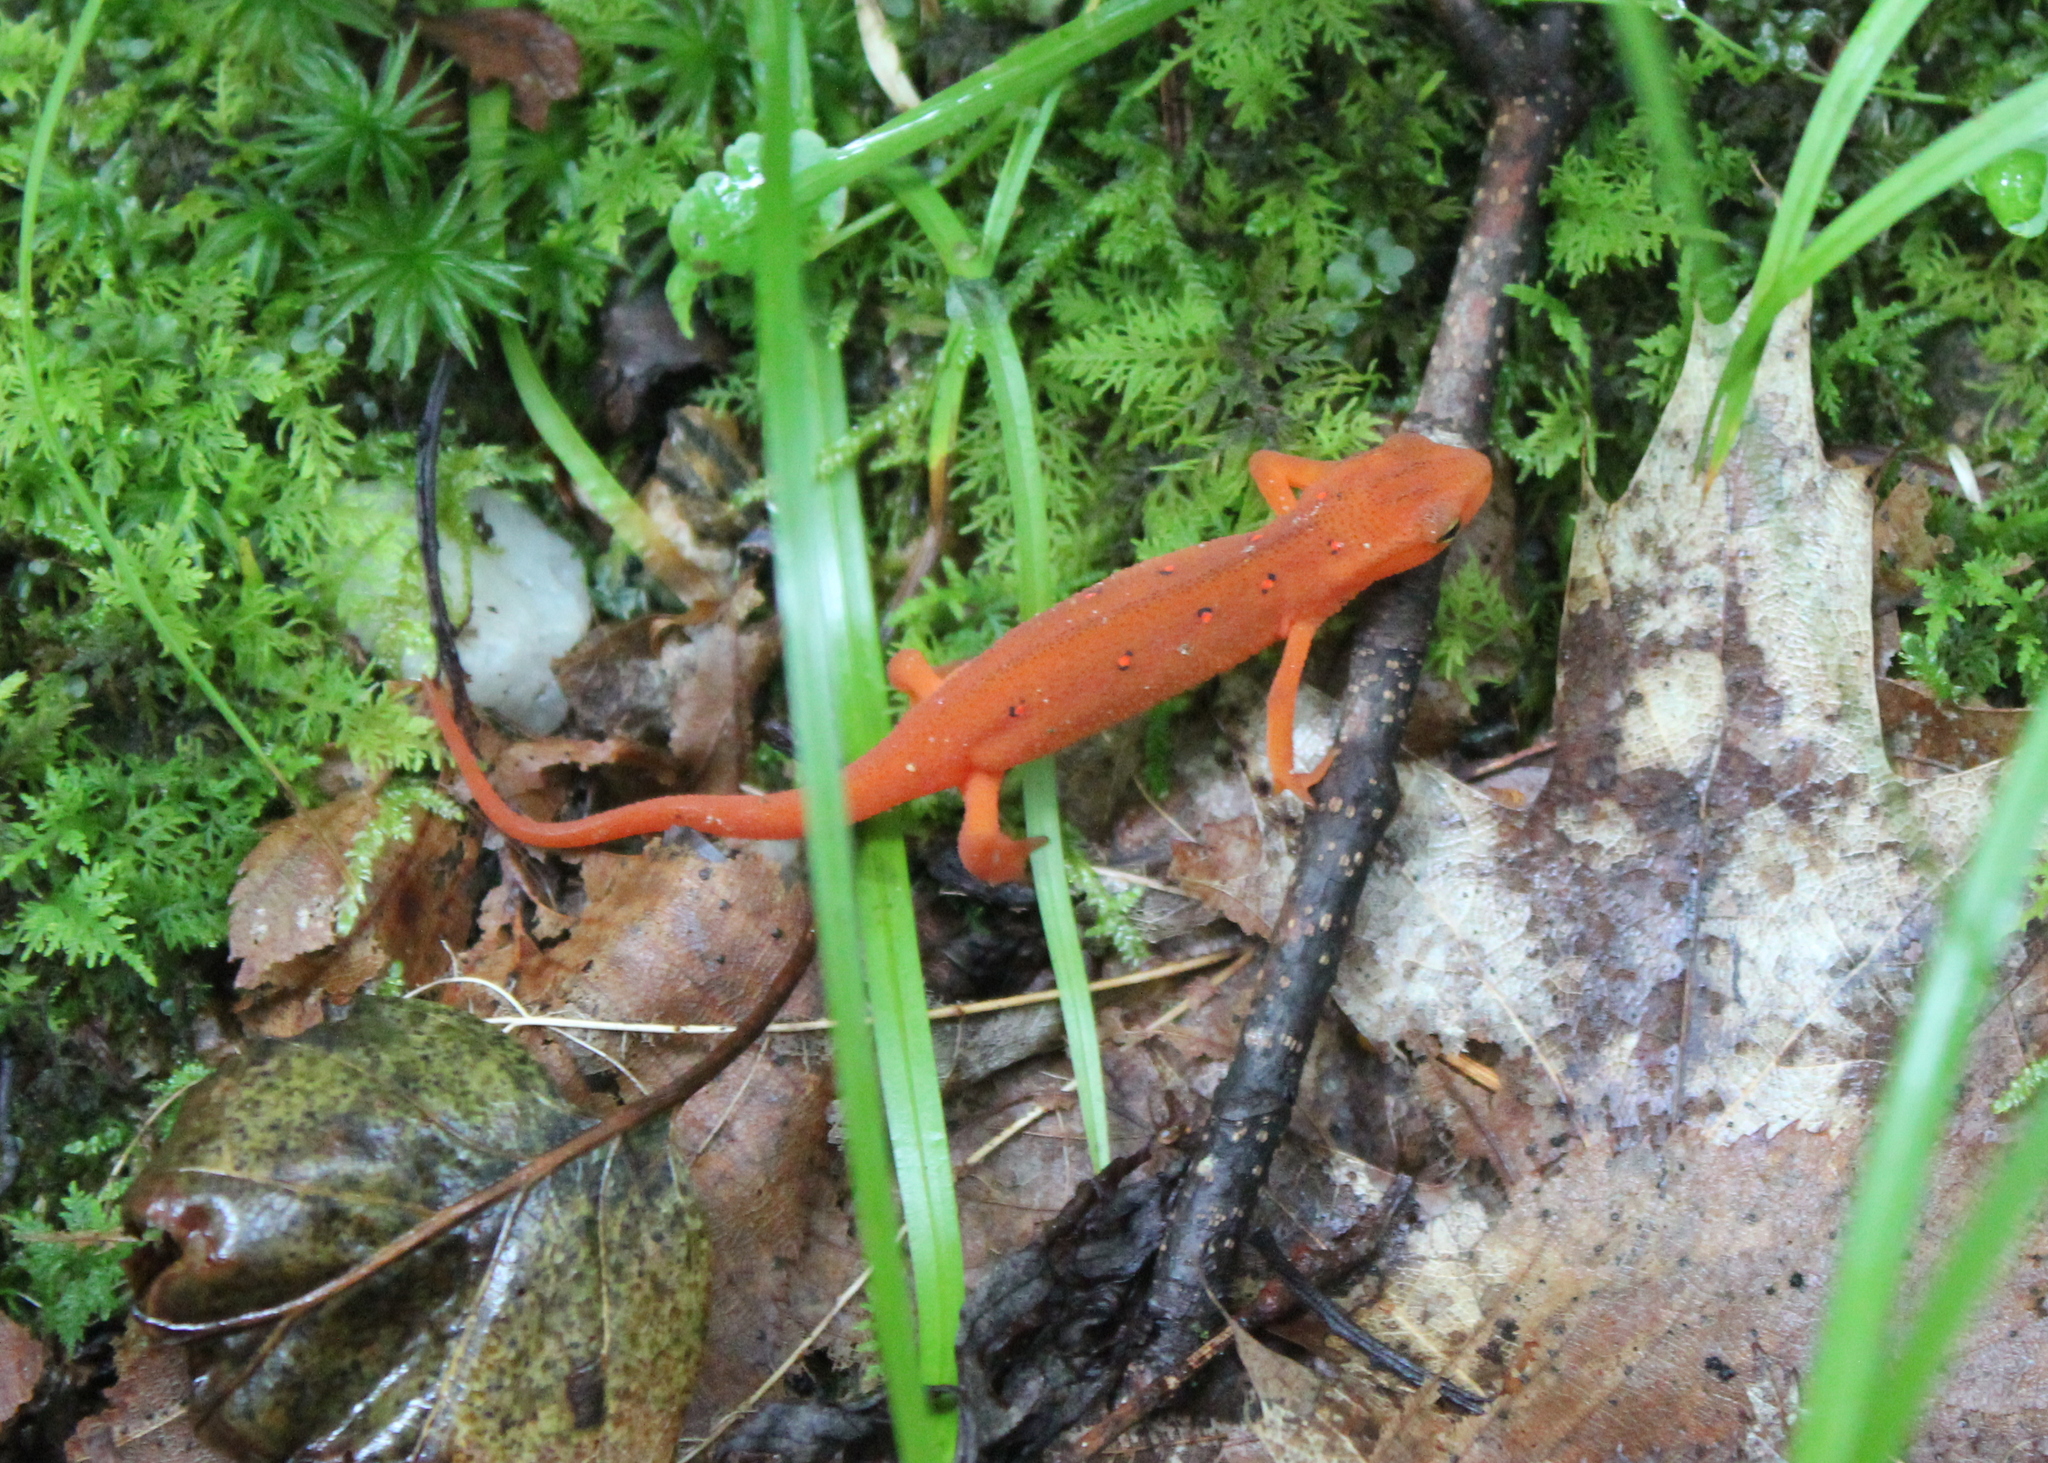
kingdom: Animalia
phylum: Chordata
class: Amphibia
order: Caudata
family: Salamandridae
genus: Notophthalmus
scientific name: Notophthalmus viridescens
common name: Eastern newt
